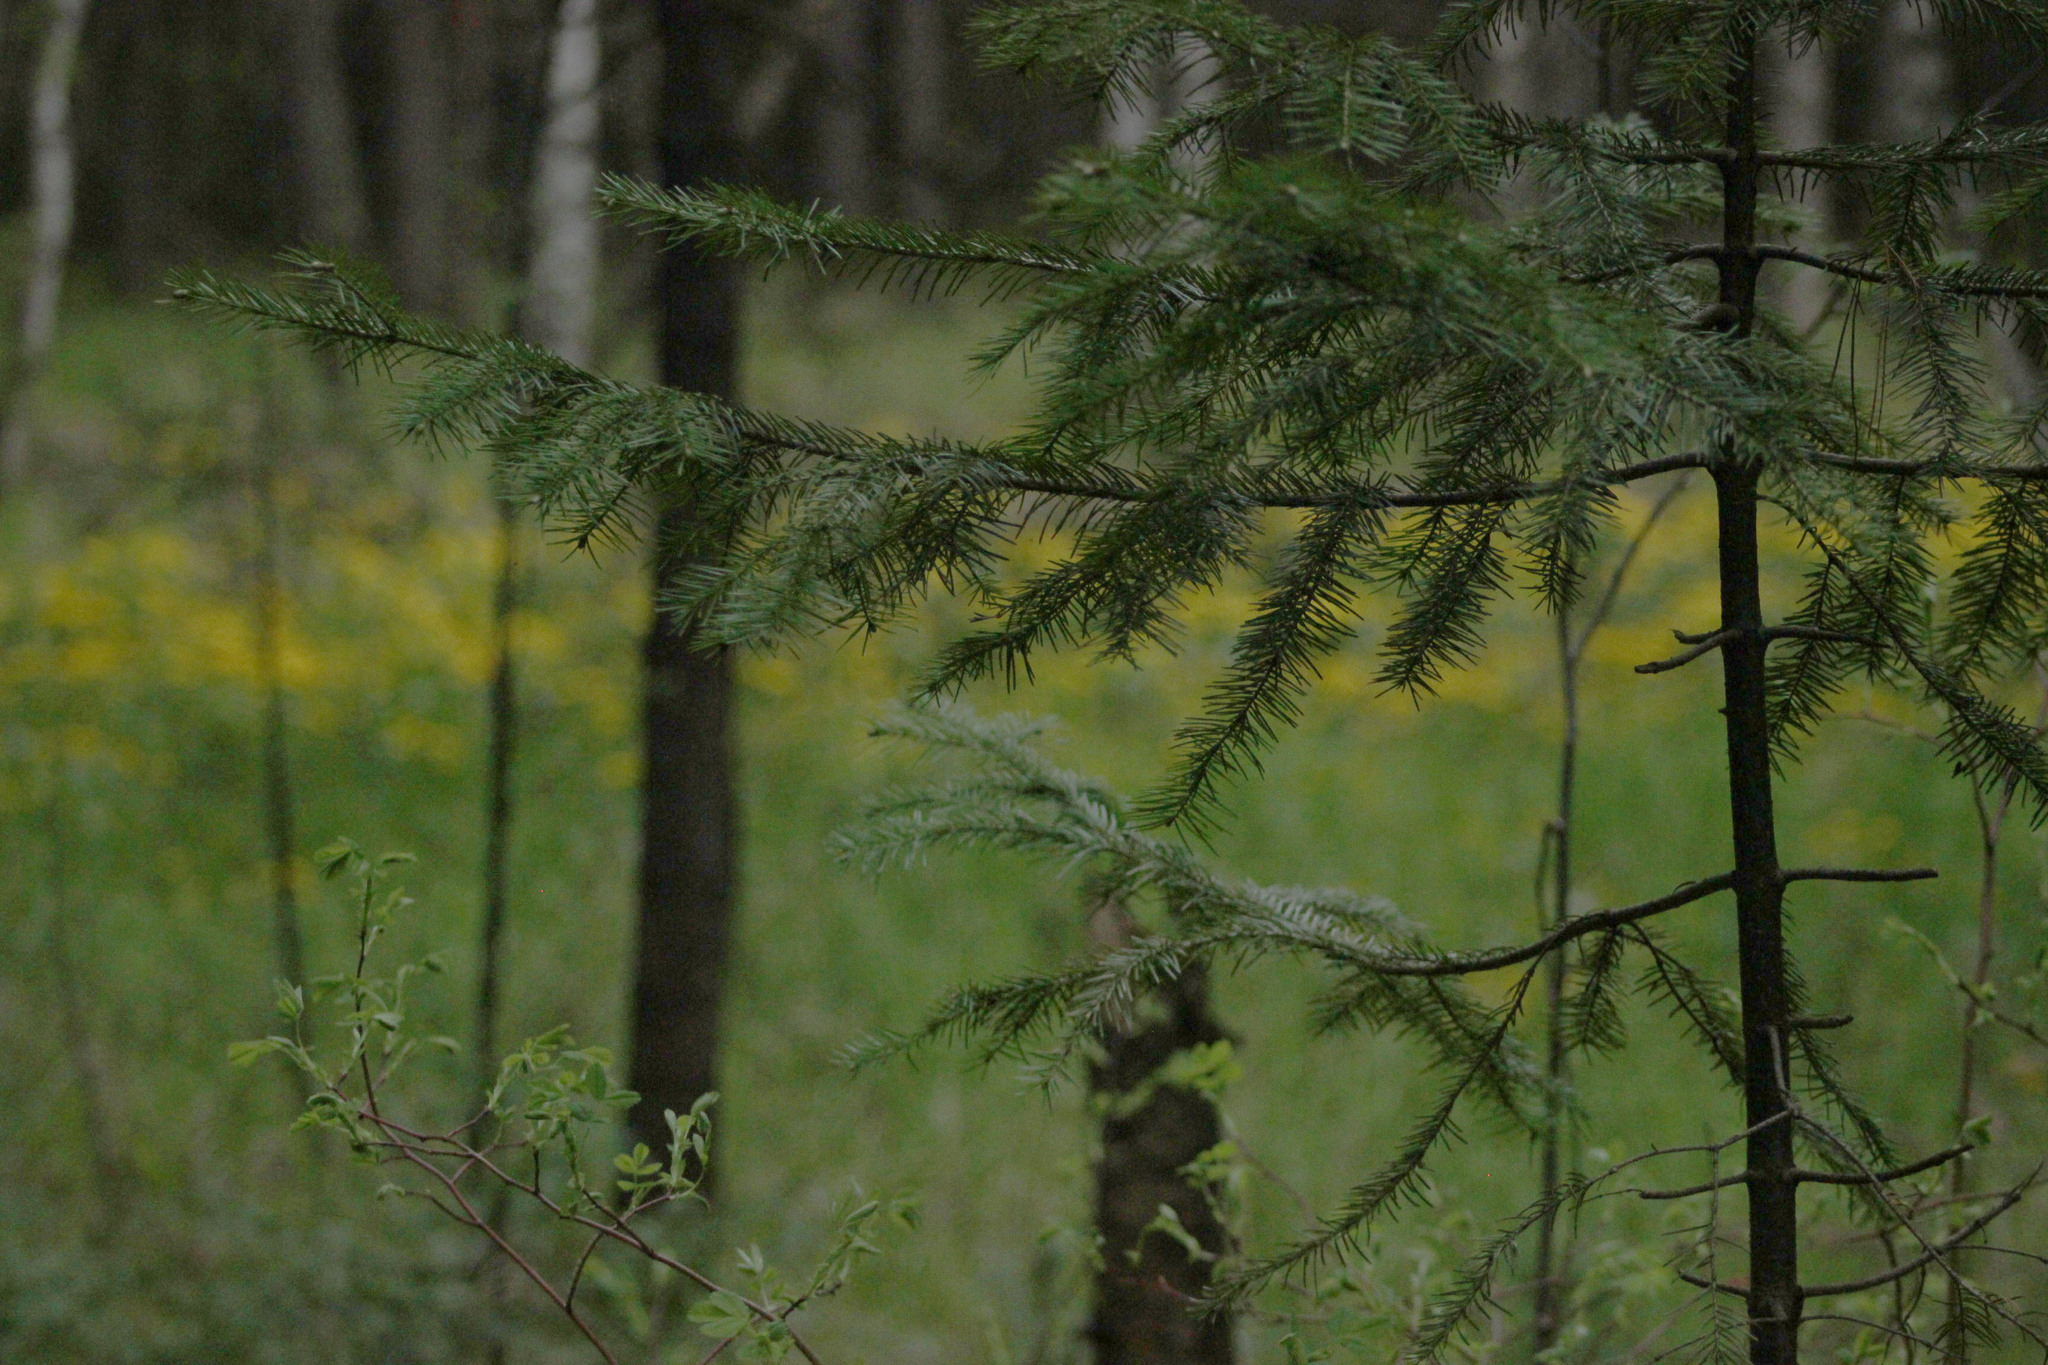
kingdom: Plantae
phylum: Tracheophyta
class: Pinopsida
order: Pinales
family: Pinaceae
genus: Abies
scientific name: Abies sibirica
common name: Siberian fir
